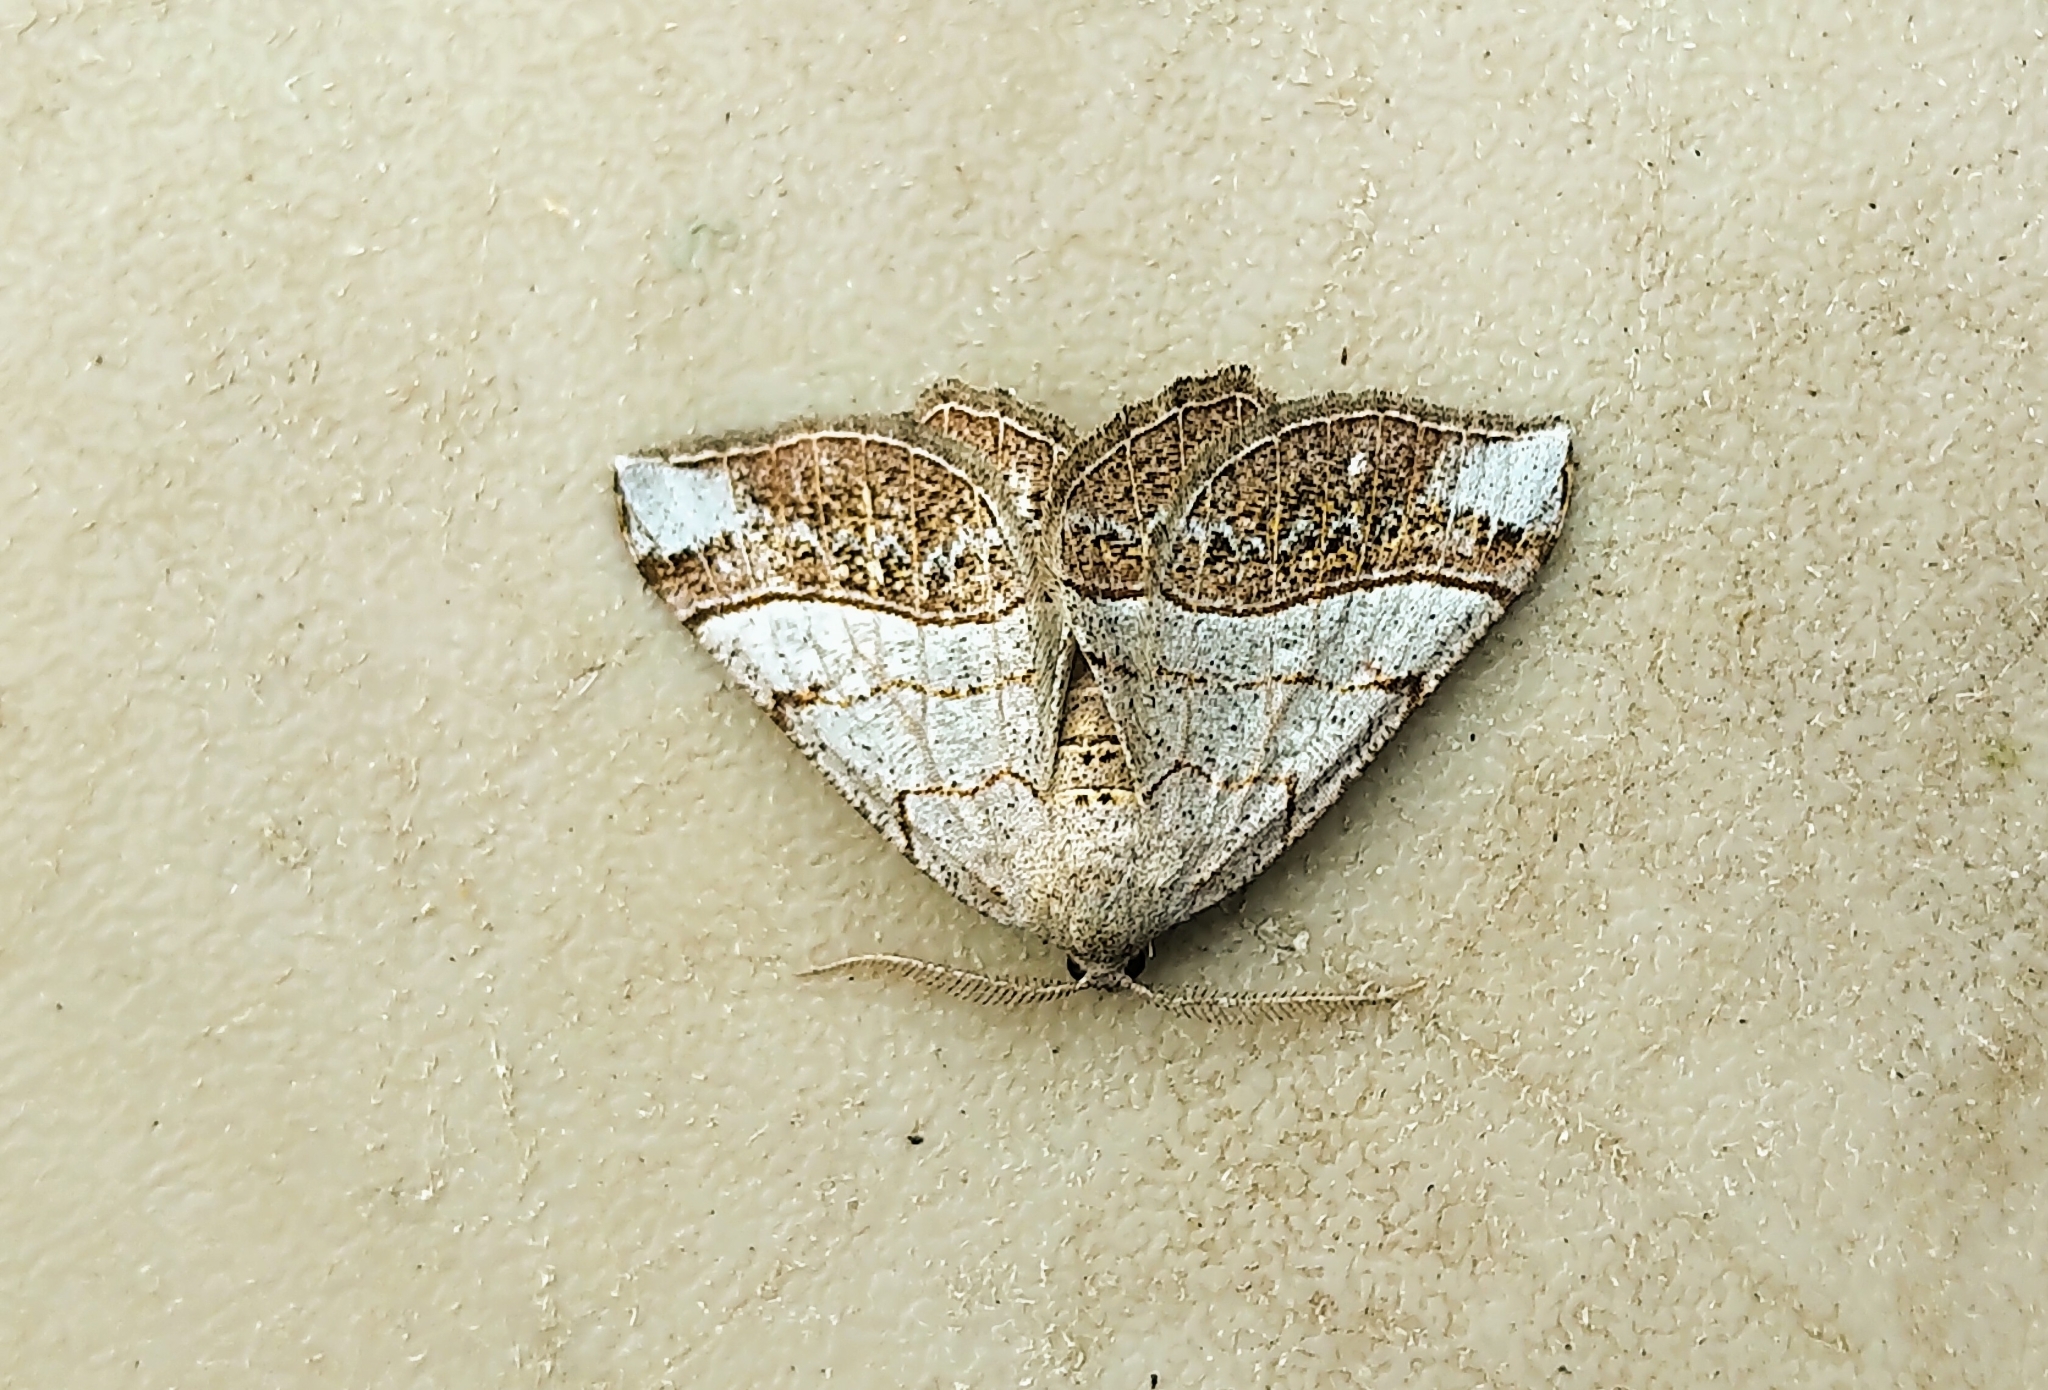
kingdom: Animalia
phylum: Arthropoda
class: Insecta
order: Lepidoptera
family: Geometridae
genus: Eumacaria
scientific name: Eumacaria madopata
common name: Brown-bordered geometer
